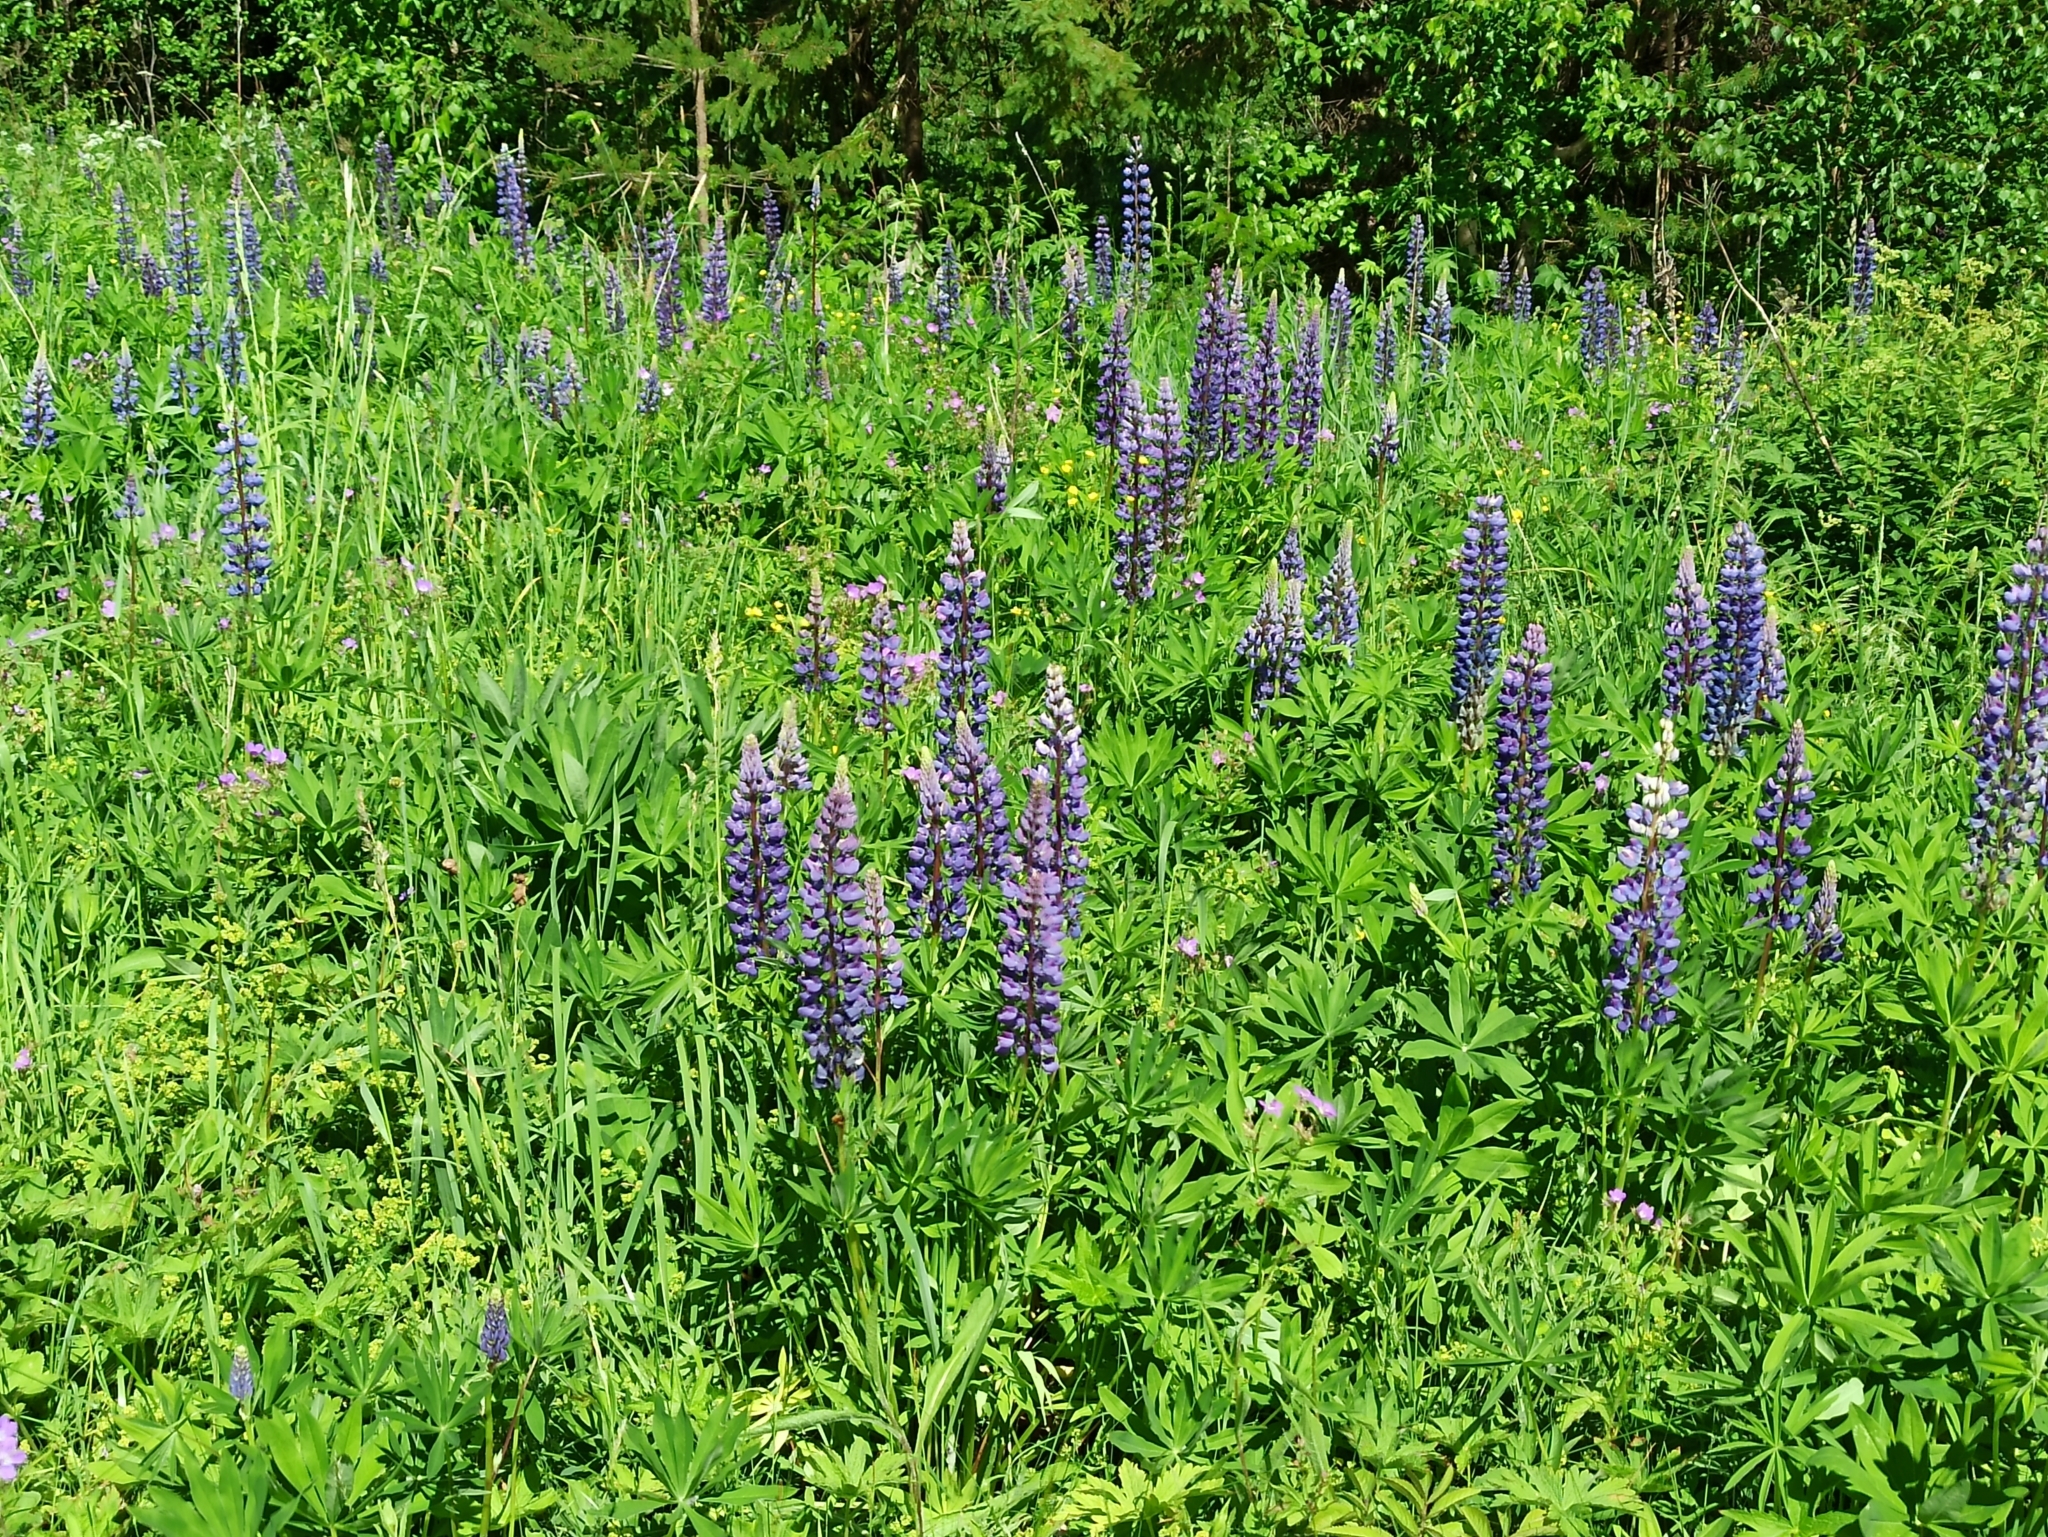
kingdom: Plantae
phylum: Tracheophyta
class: Magnoliopsida
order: Fabales
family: Fabaceae
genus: Lupinus
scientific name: Lupinus polyphyllus
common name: Garden lupin
